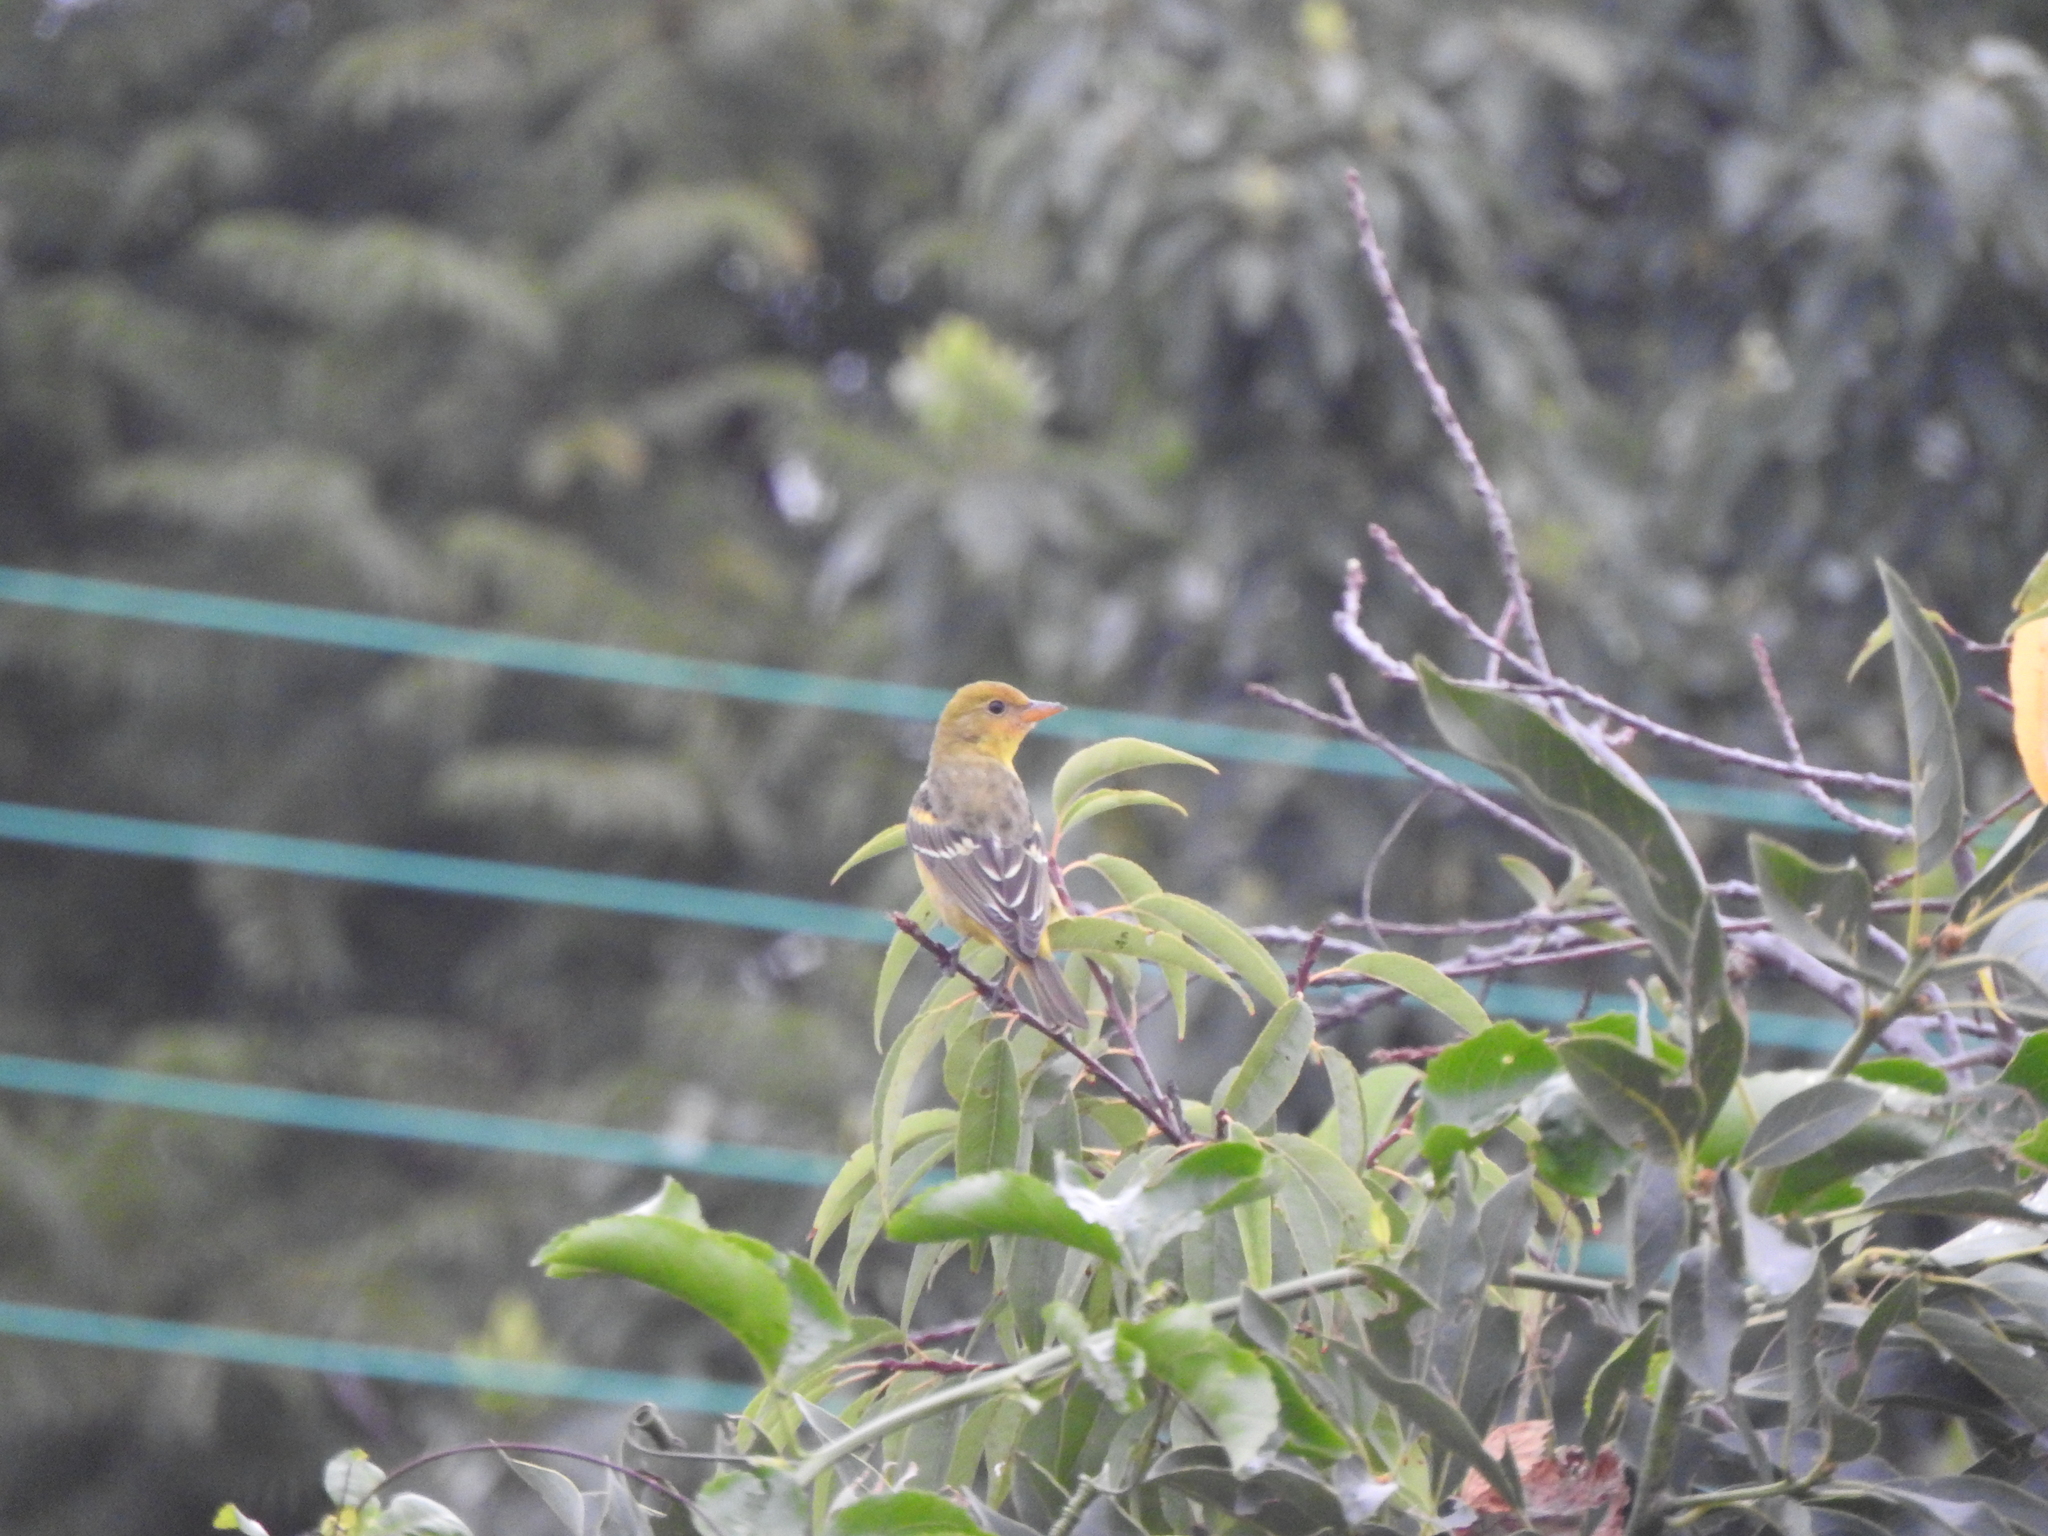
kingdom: Animalia
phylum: Chordata
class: Aves
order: Passeriformes
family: Cardinalidae
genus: Piranga
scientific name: Piranga ludoviciana
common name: Western tanager
